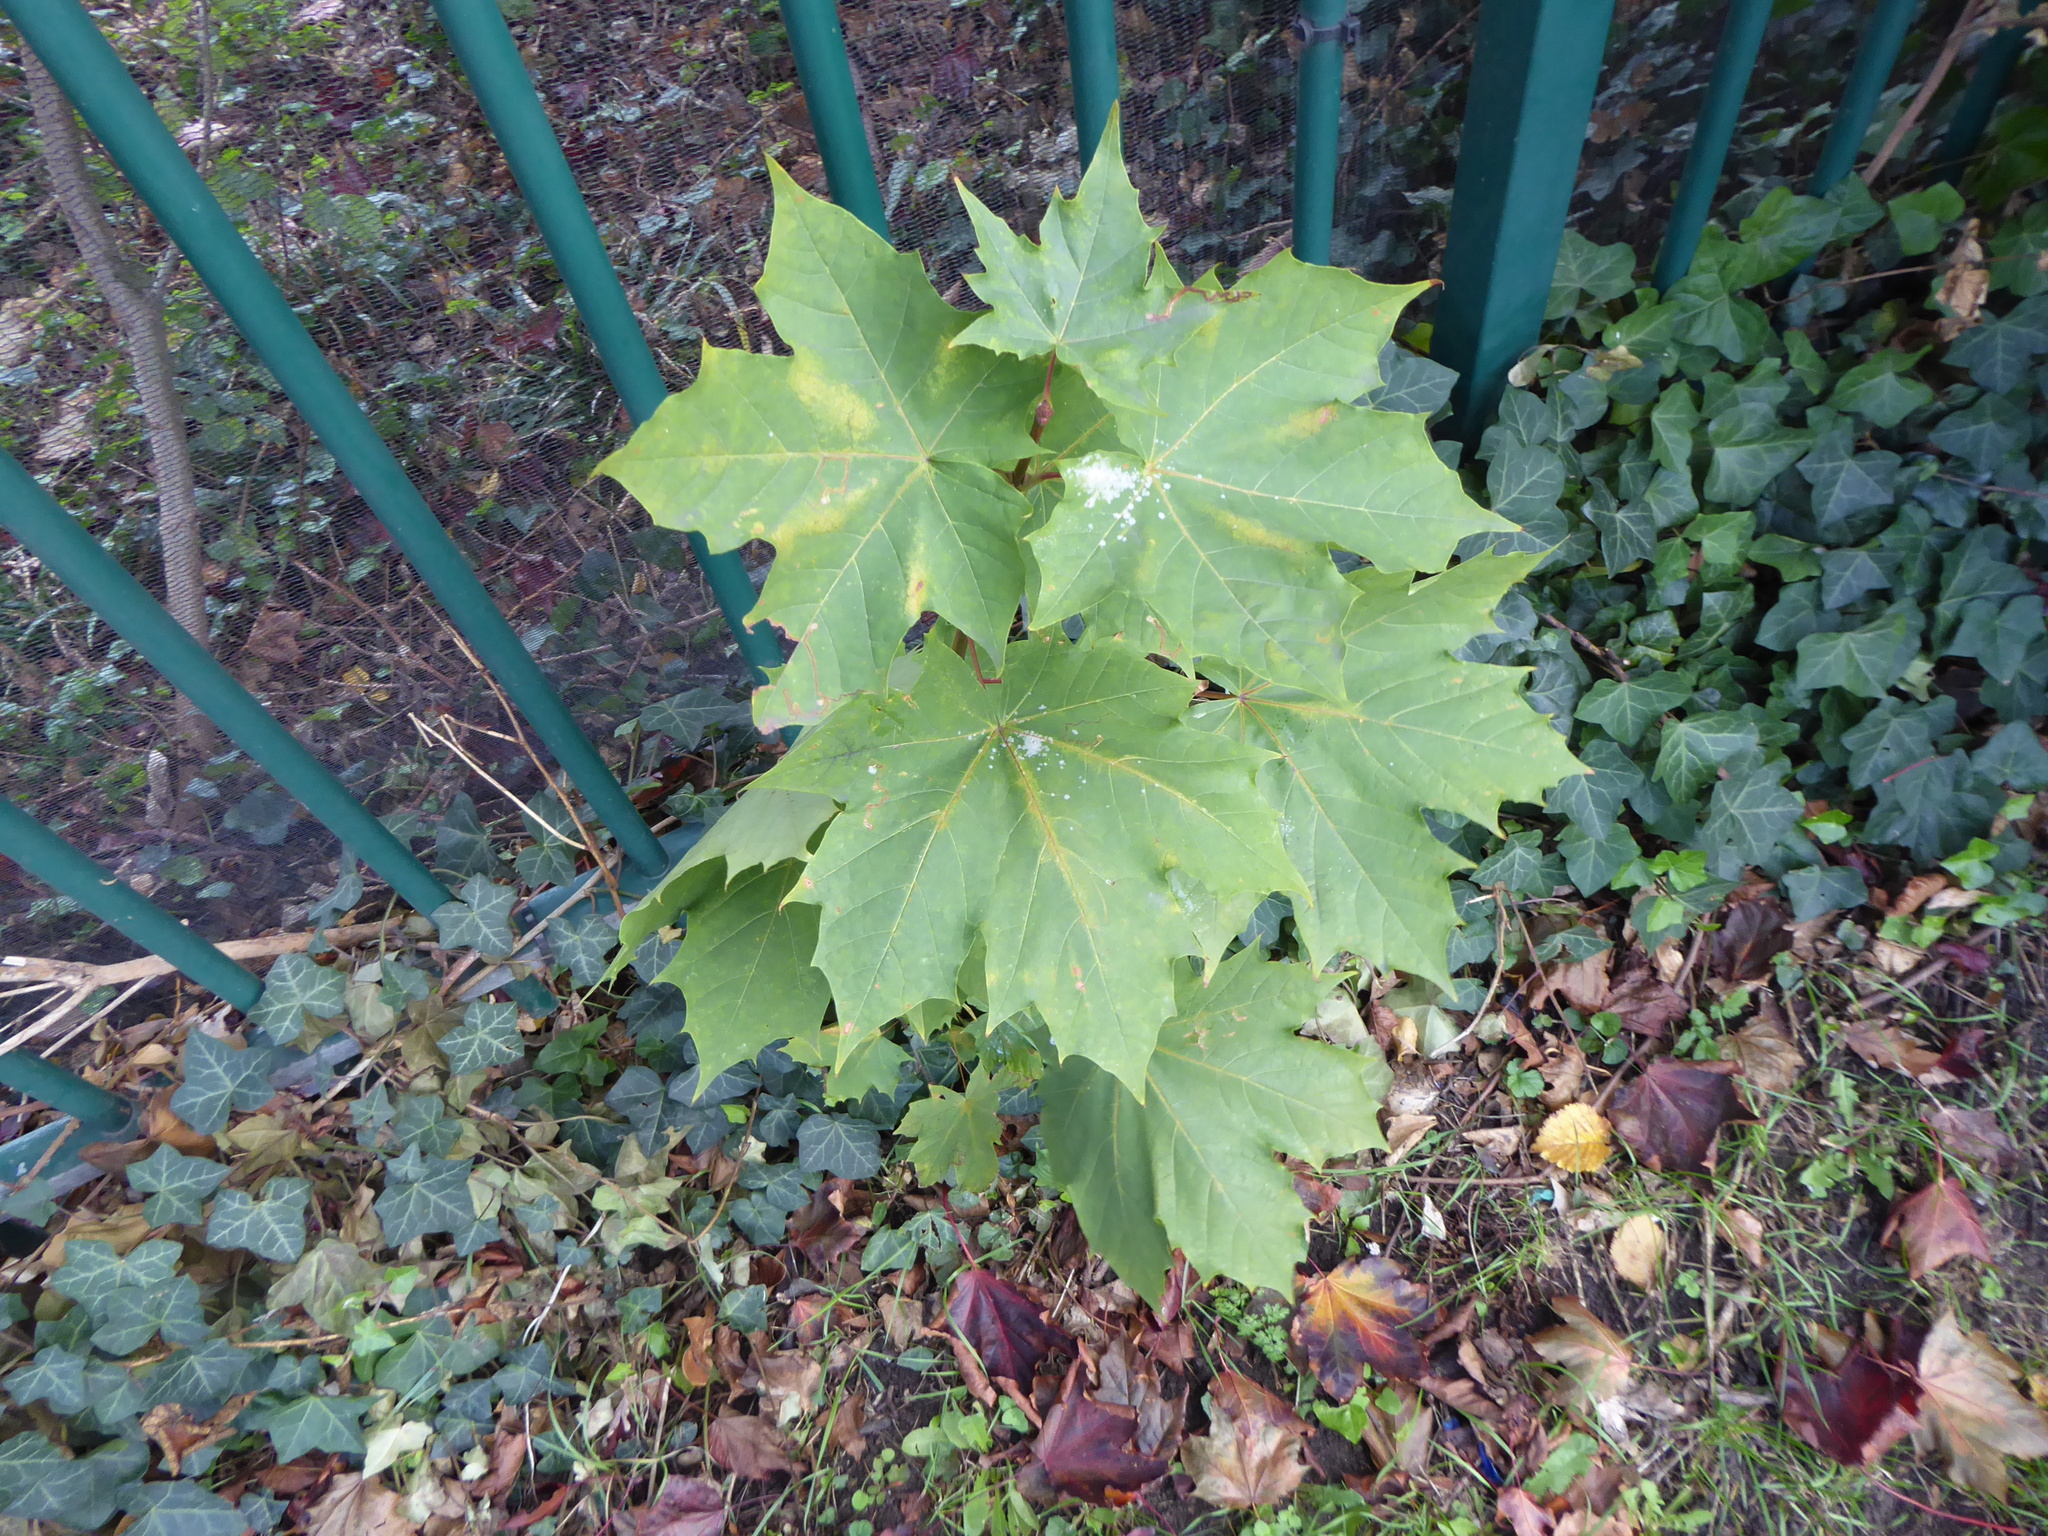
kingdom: Plantae
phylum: Tracheophyta
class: Magnoliopsida
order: Sapindales
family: Sapindaceae
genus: Acer
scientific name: Acer platanoides
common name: Norway maple
